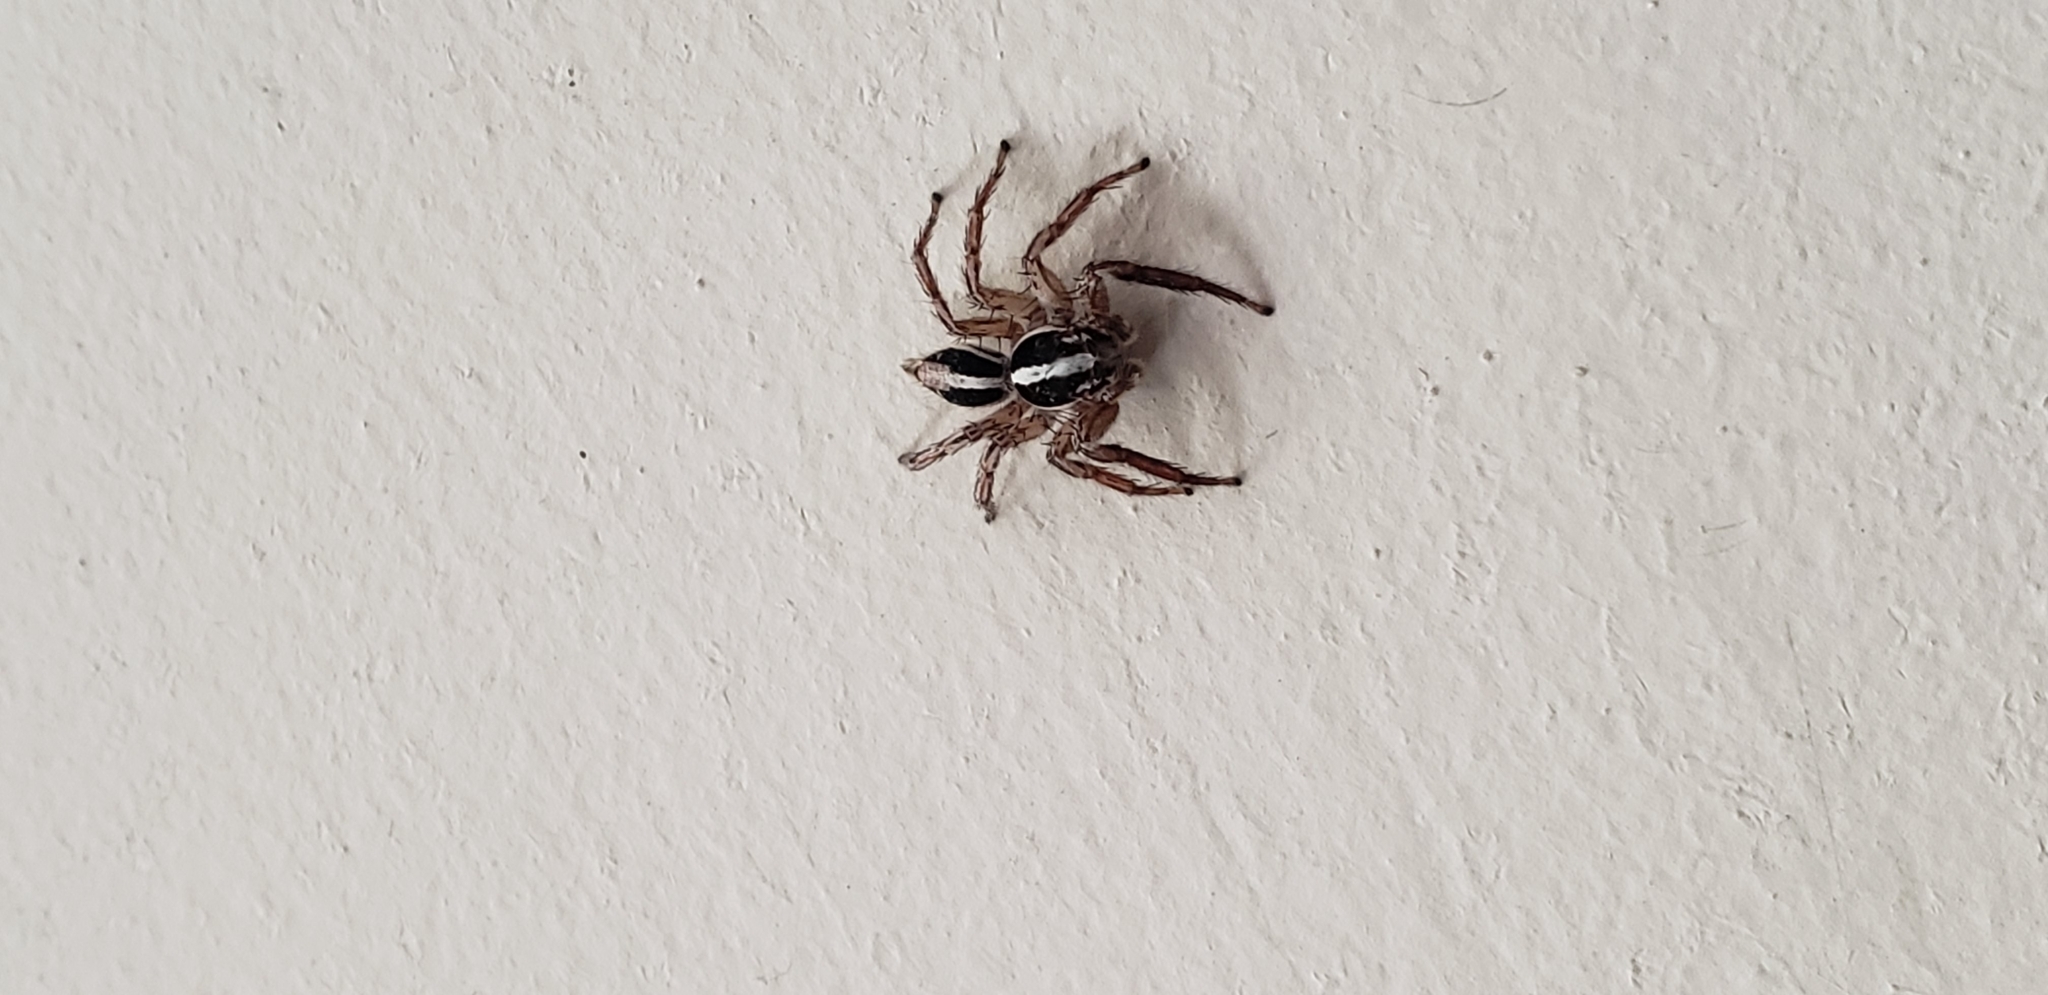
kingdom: Animalia
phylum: Arthropoda
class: Arachnida
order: Araneae
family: Salticidae
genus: Plexippus
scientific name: Plexippus paykulli
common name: Pantropical jumper
